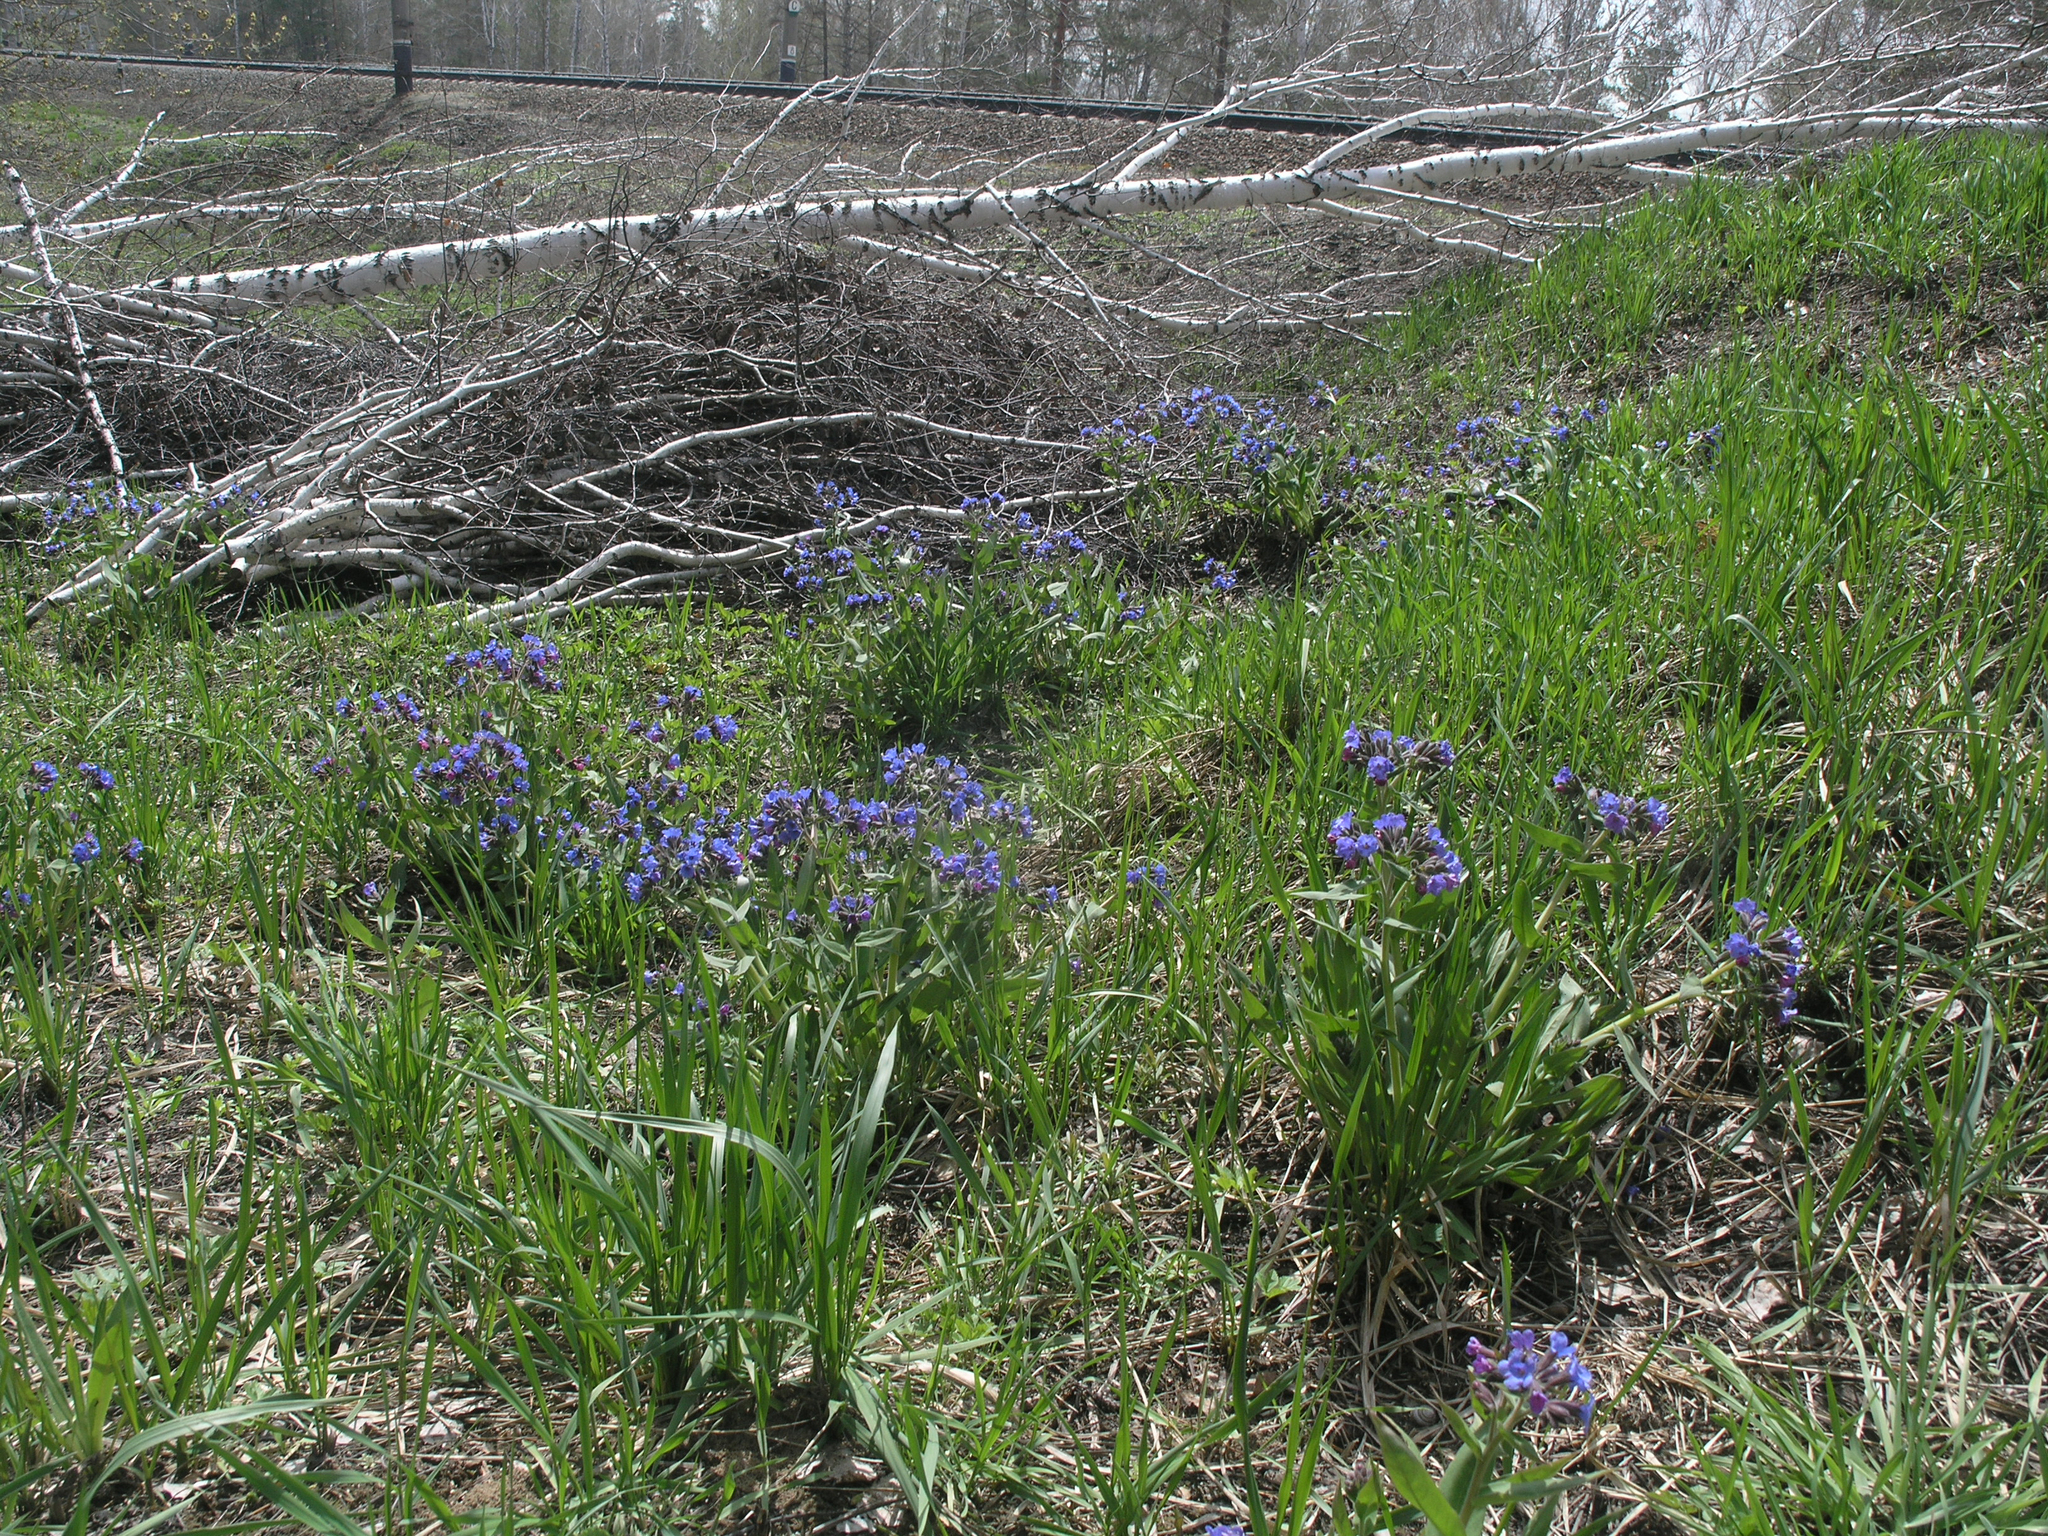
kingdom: Plantae
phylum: Tracheophyta
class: Magnoliopsida
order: Fagales
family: Betulaceae
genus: Betula
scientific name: Betula pendula
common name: Silver birch
